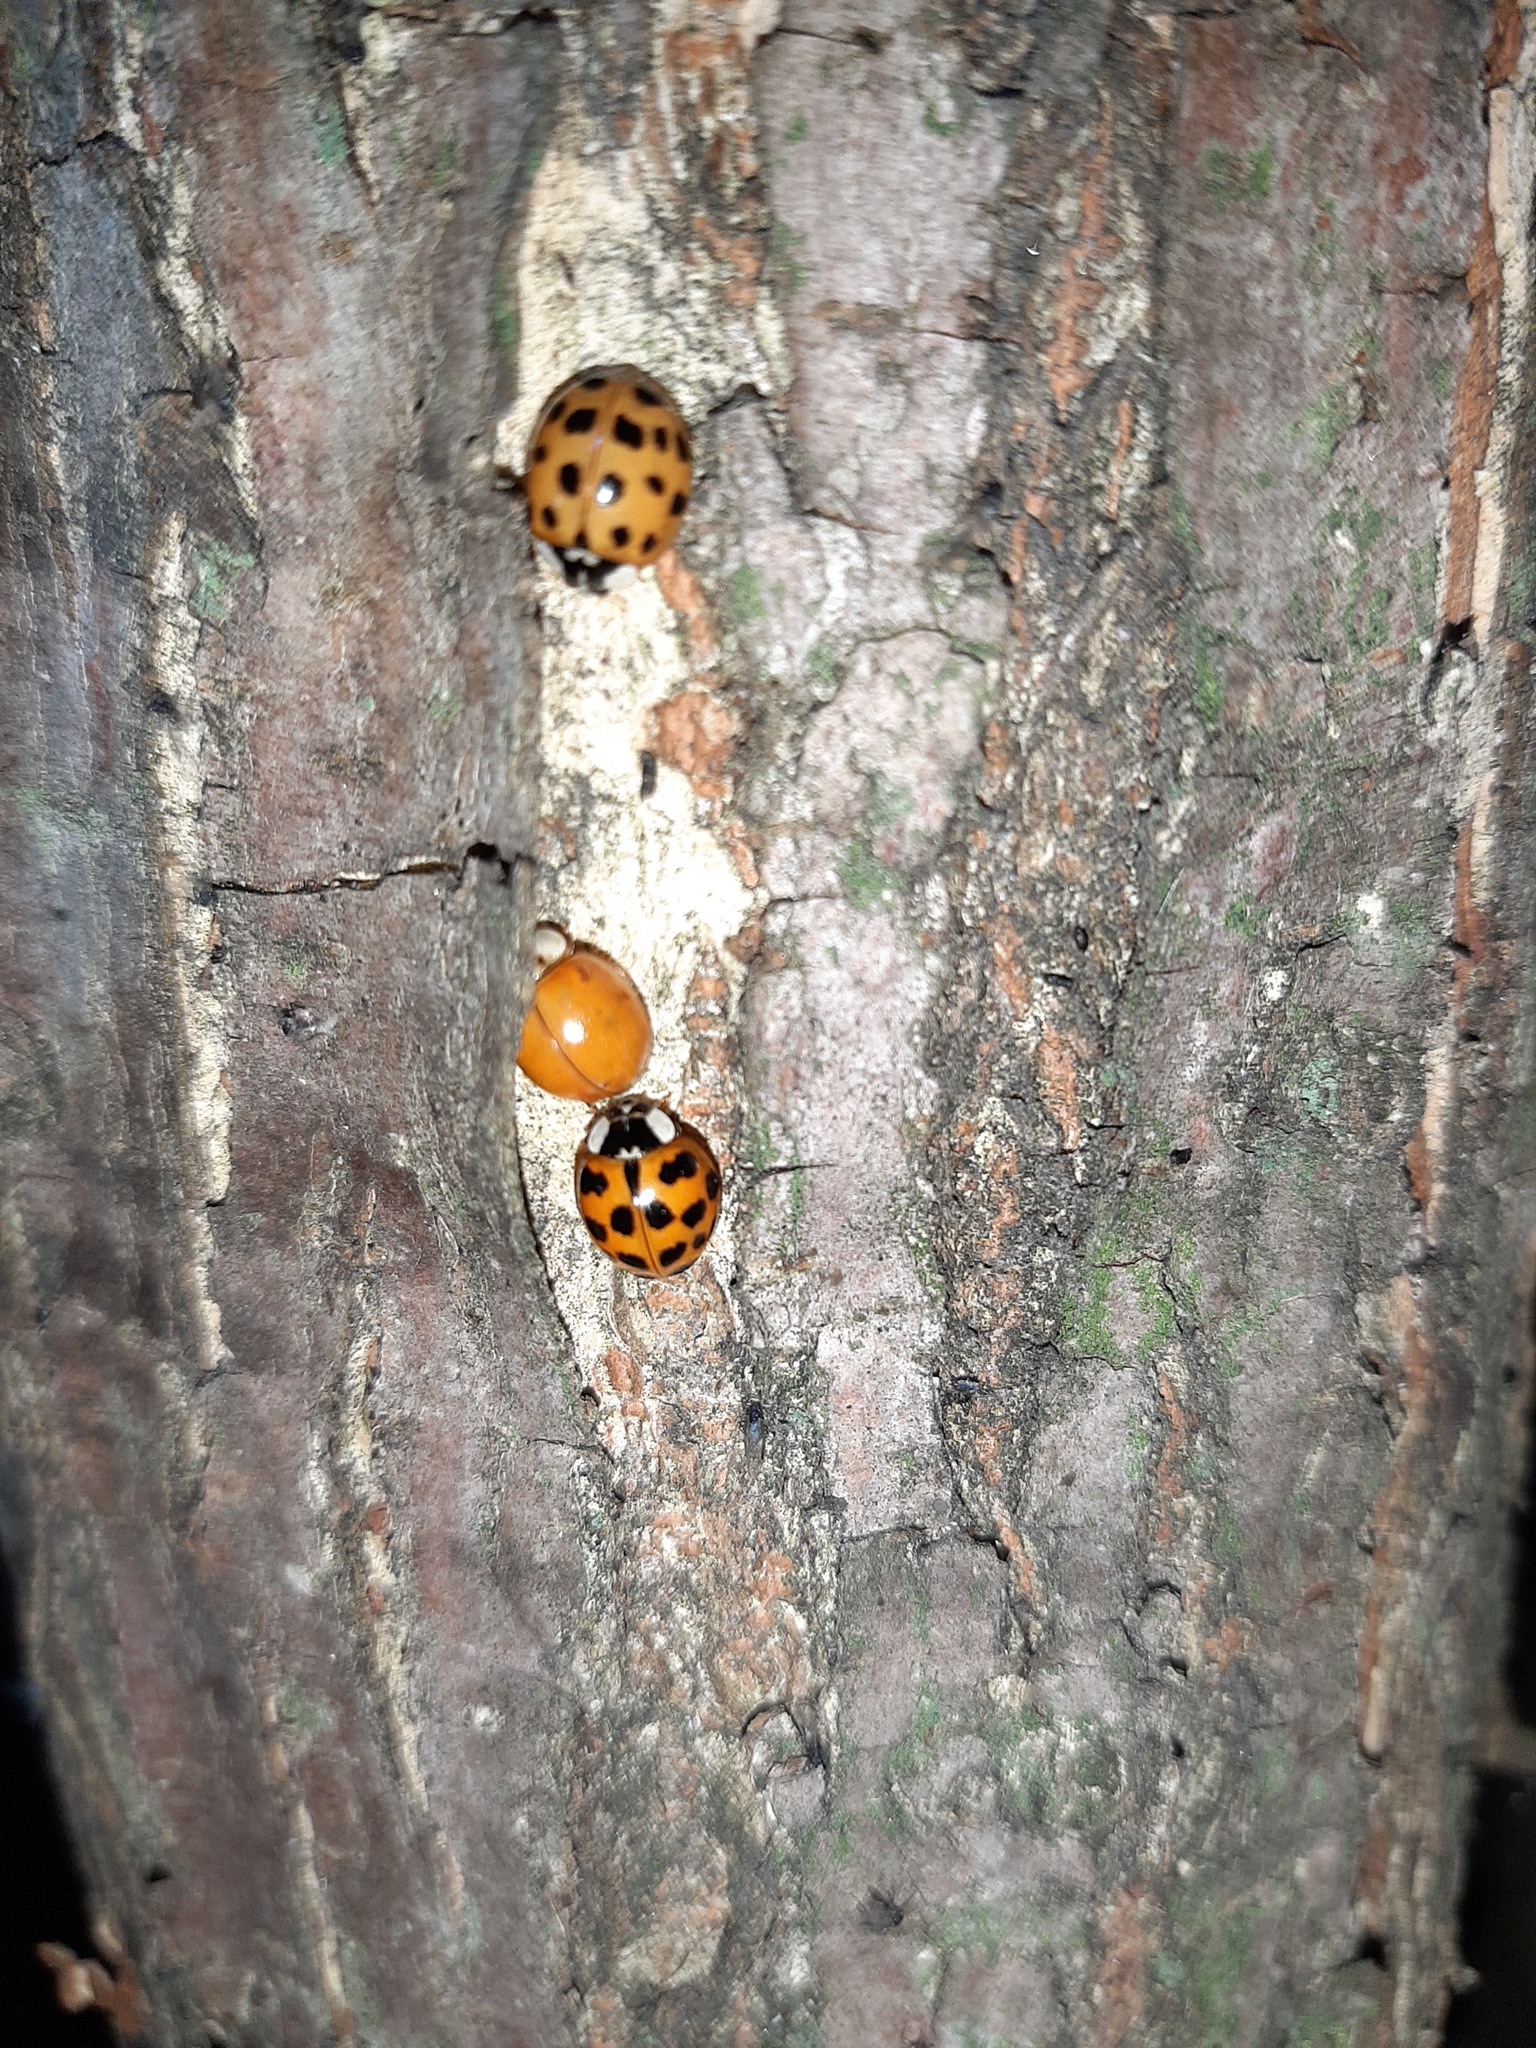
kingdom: Animalia
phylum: Arthropoda
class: Insecta
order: Coleoptera
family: Coccinellidae
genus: Harmonia
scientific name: Harmonia axyridis
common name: Harlequin ladybird
